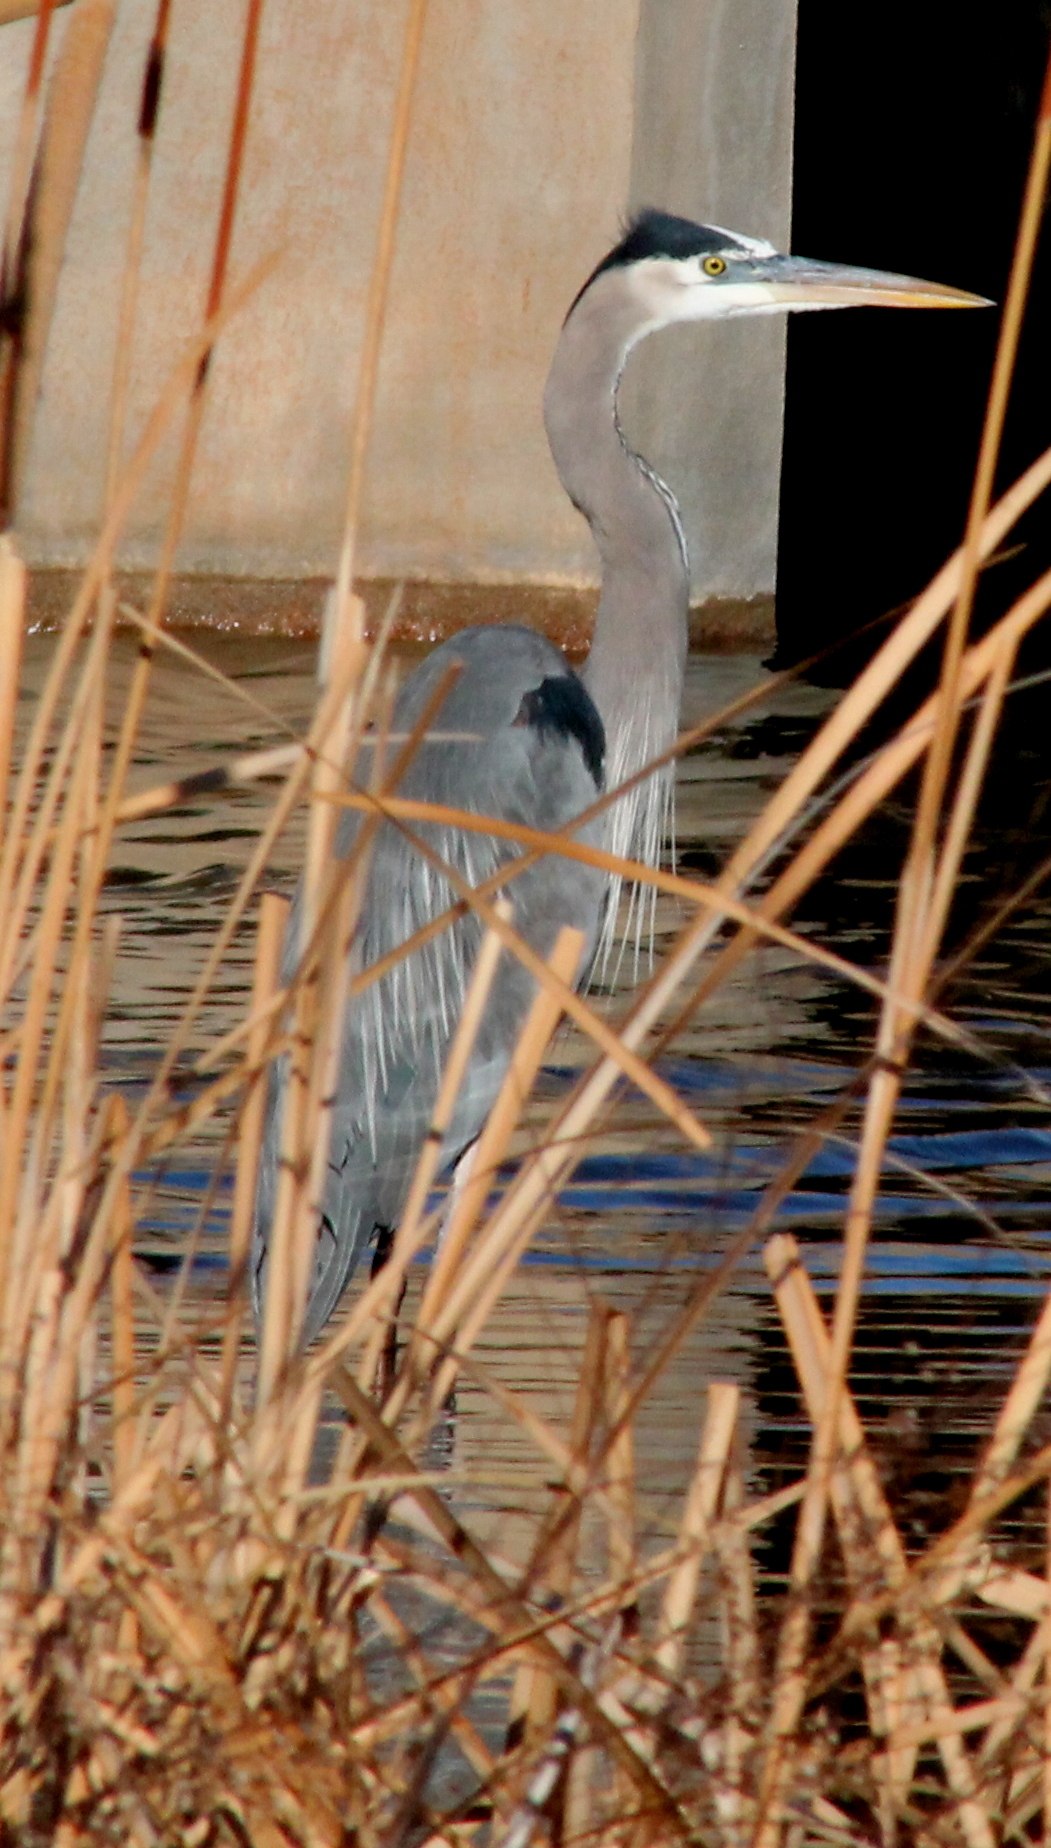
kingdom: Animalia
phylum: Chordata
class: Aves
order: Pelecaniformes
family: Ardeidae
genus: Ardea
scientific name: Ardea herodias
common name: Great blue heron
